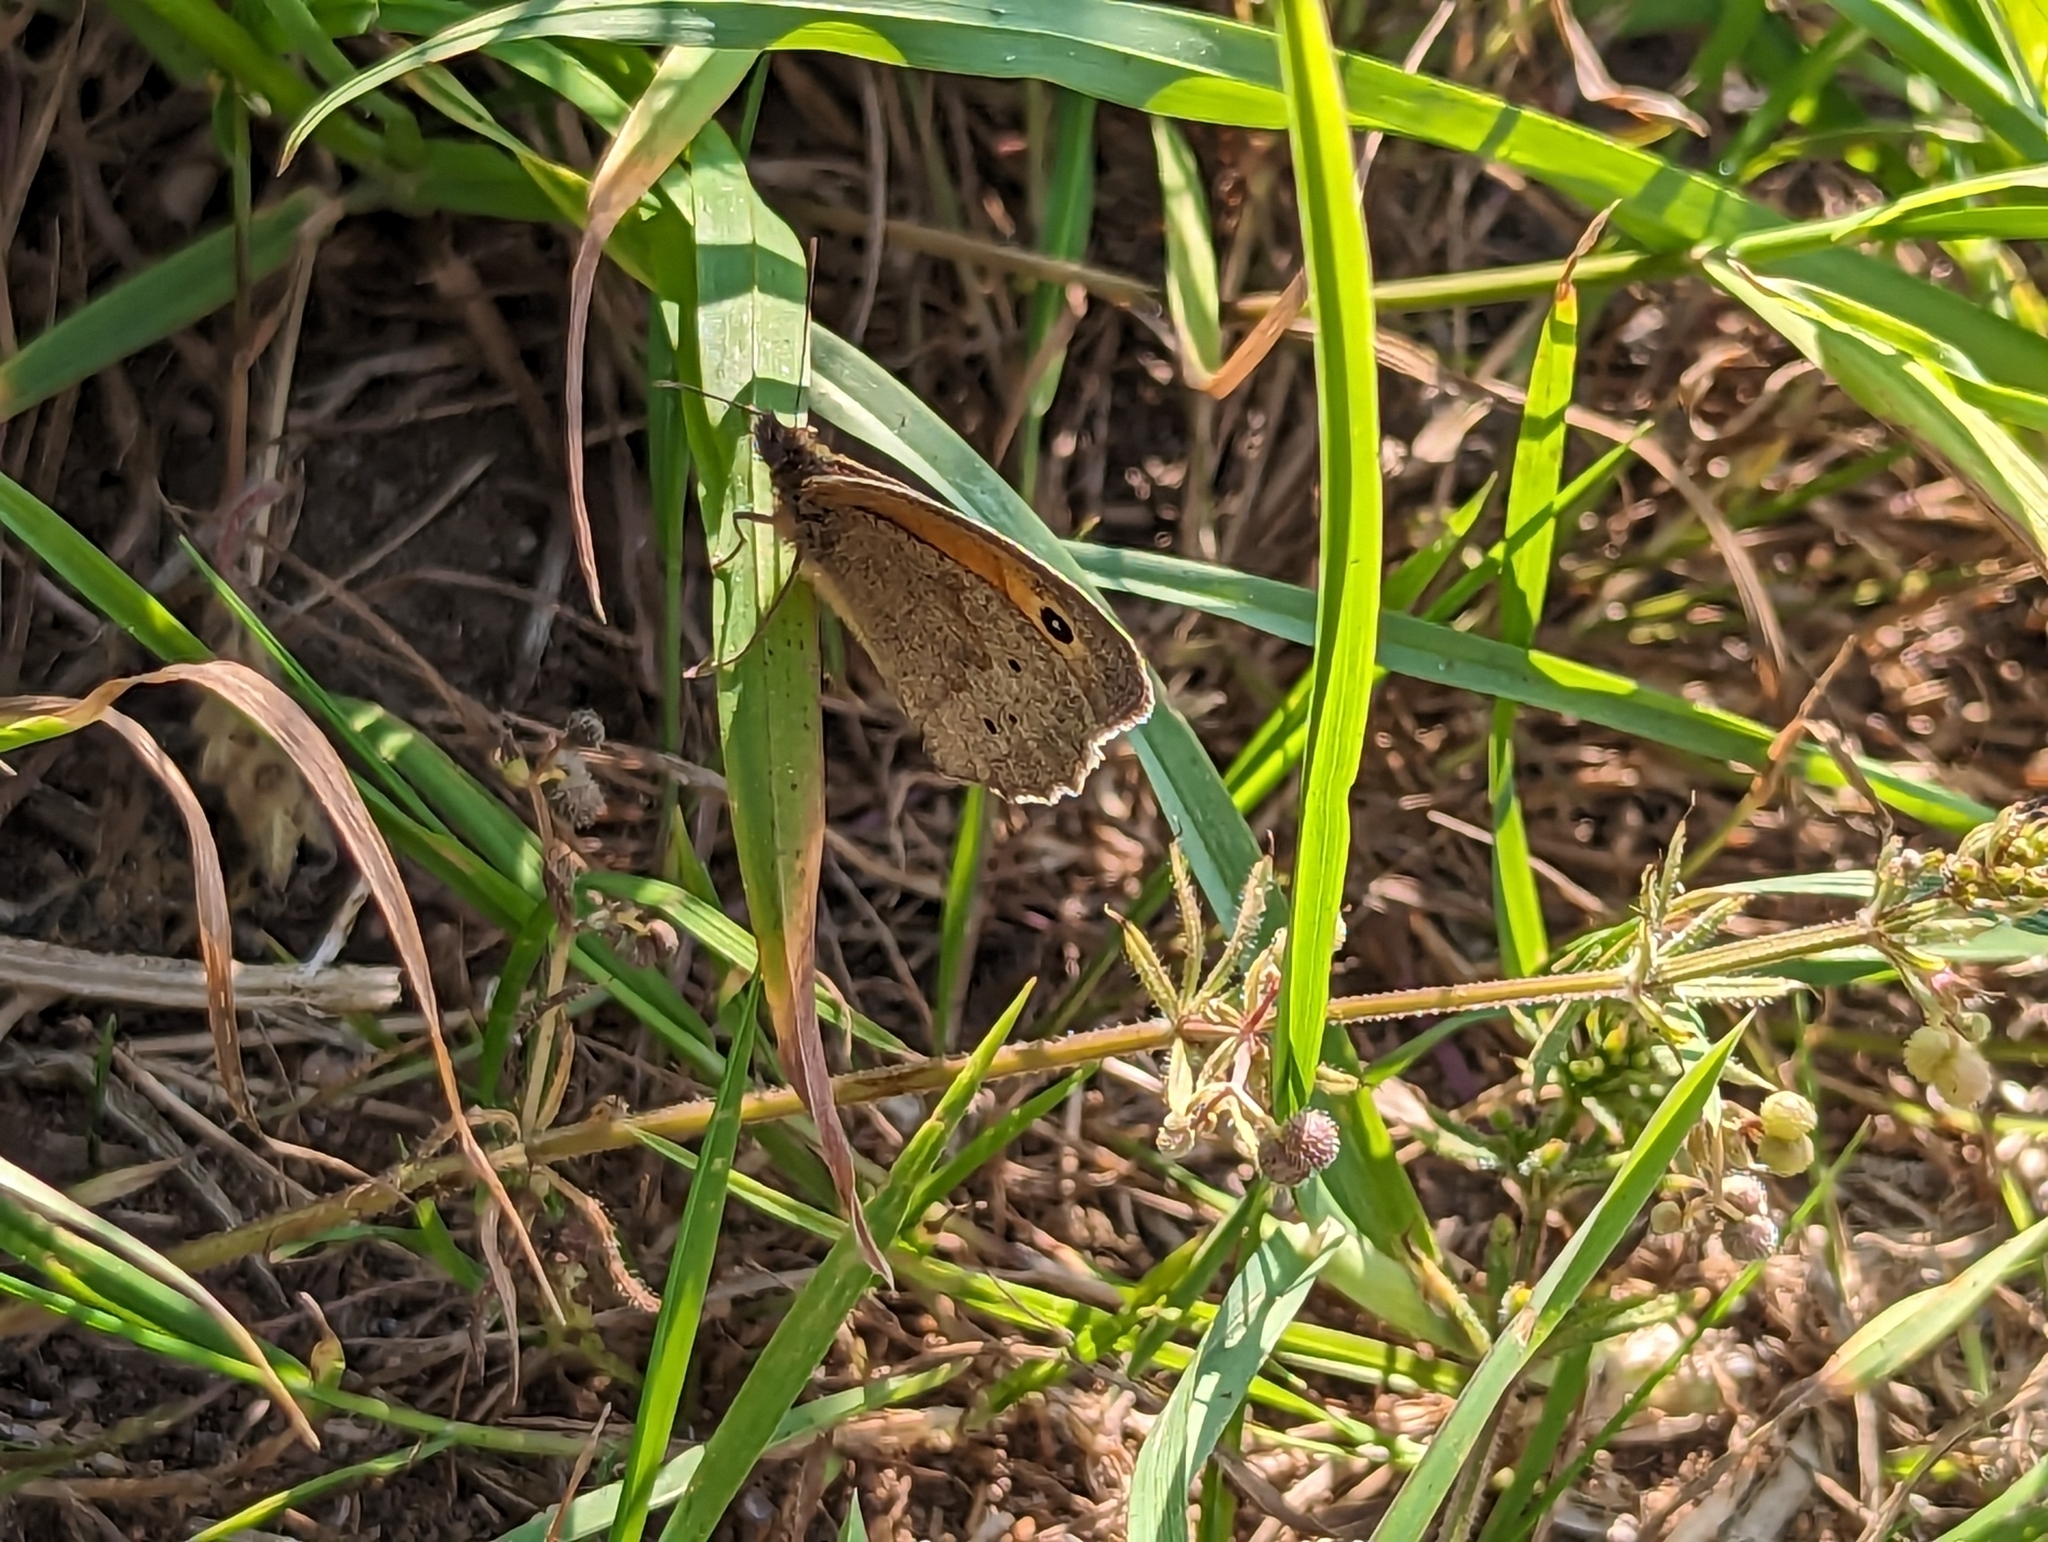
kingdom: Animalia
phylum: Arthropoda
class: Insecta
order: Lepidoptera
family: Nymphalidae
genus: Maniola
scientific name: Maniola jurtina
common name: Meadow brown
